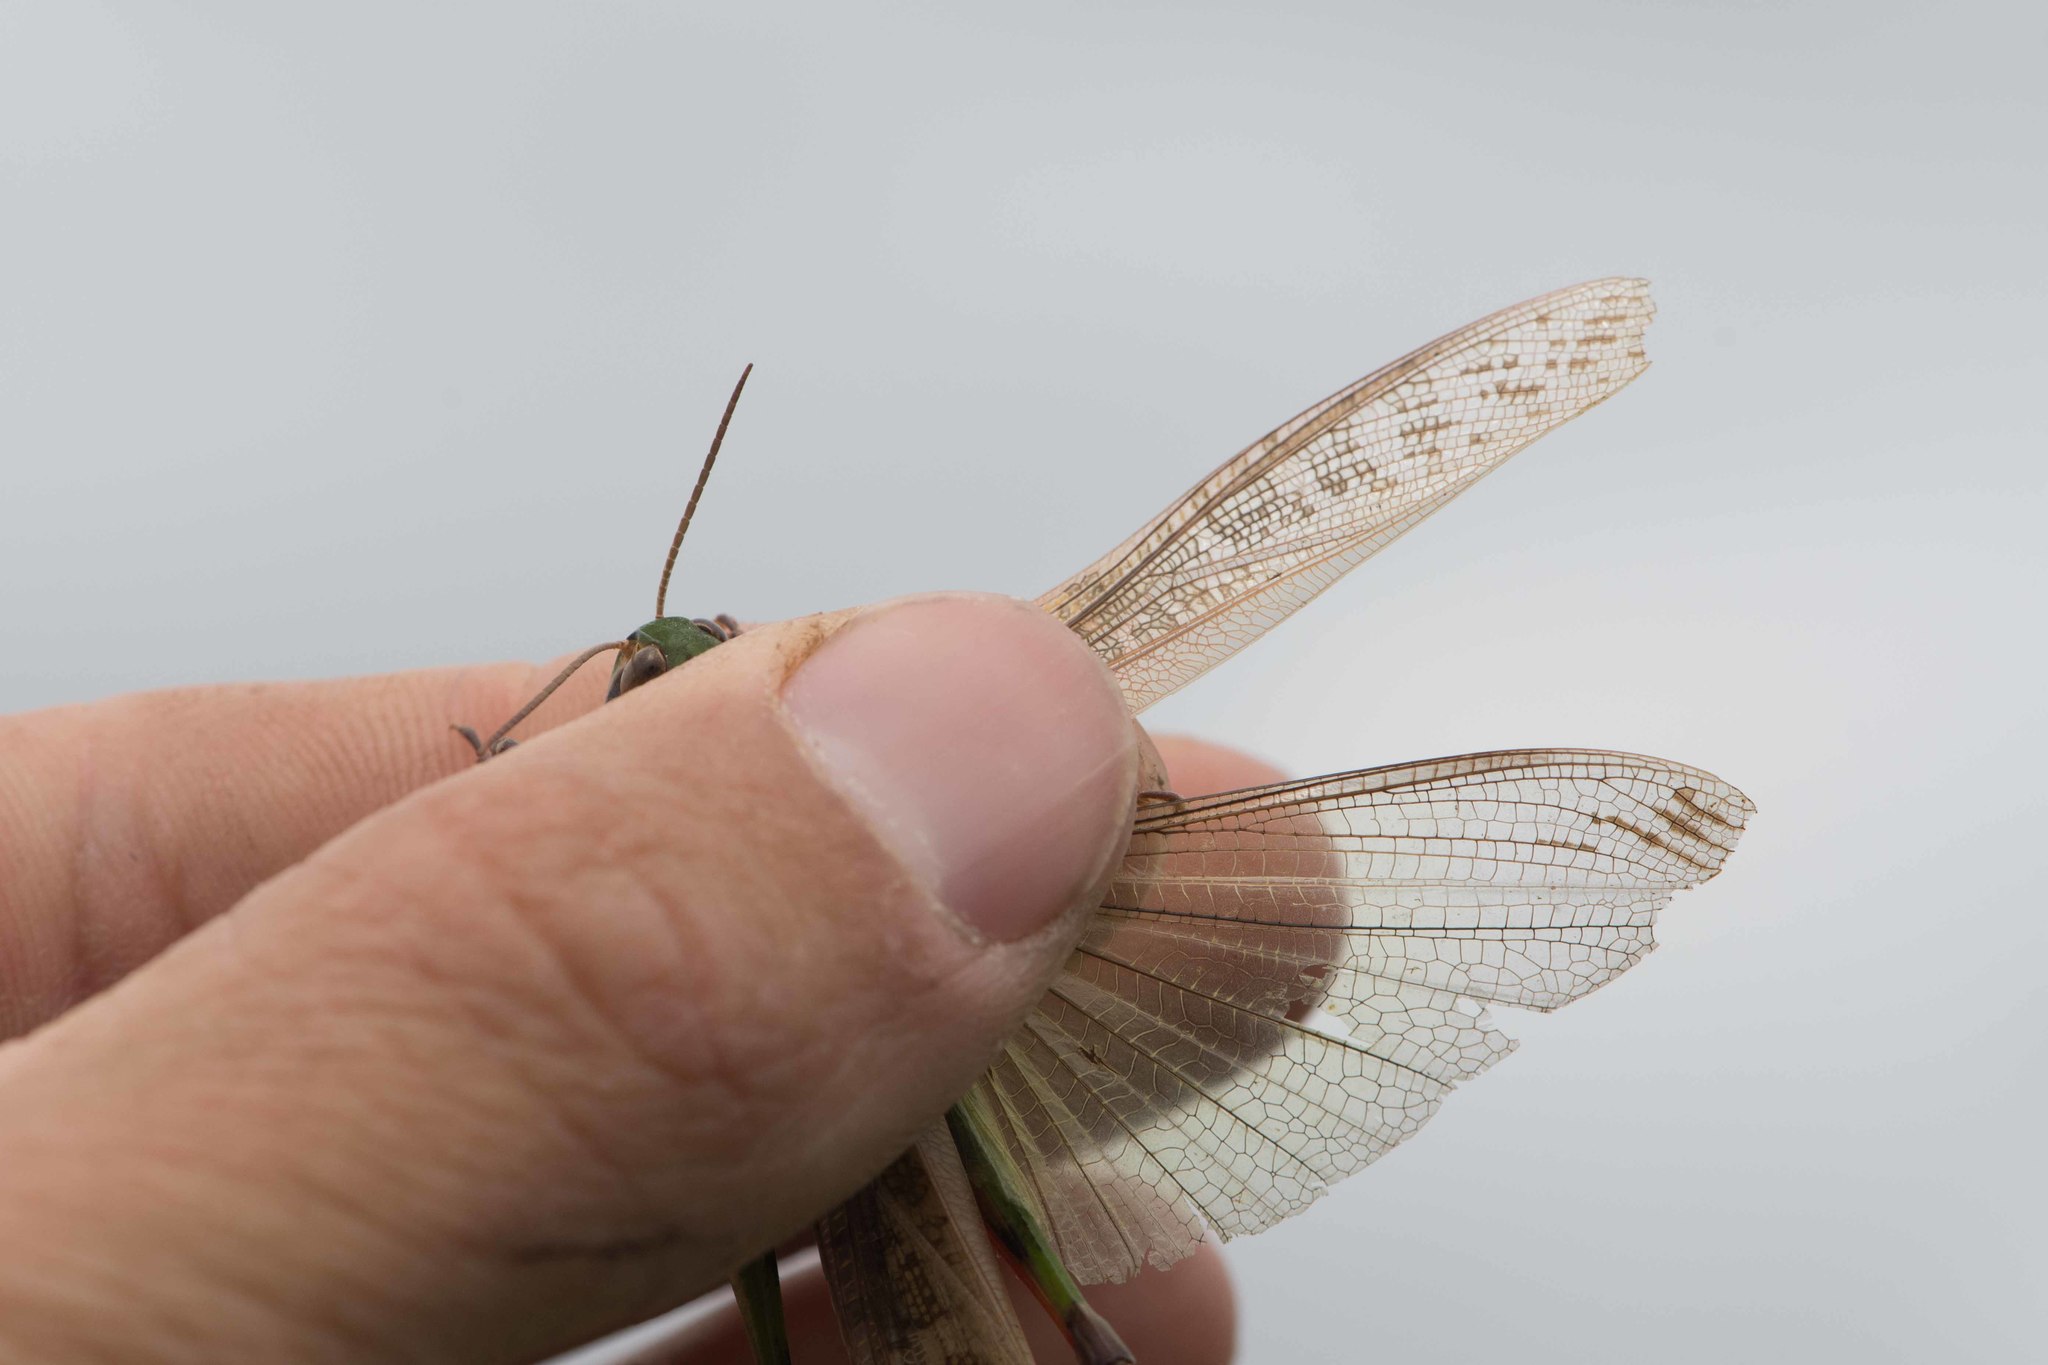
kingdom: Animalia
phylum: Arthropoda
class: Insecta
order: Orthoptera
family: Acrididae
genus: Locusta
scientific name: Locusta migratoria
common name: Migratory locust
